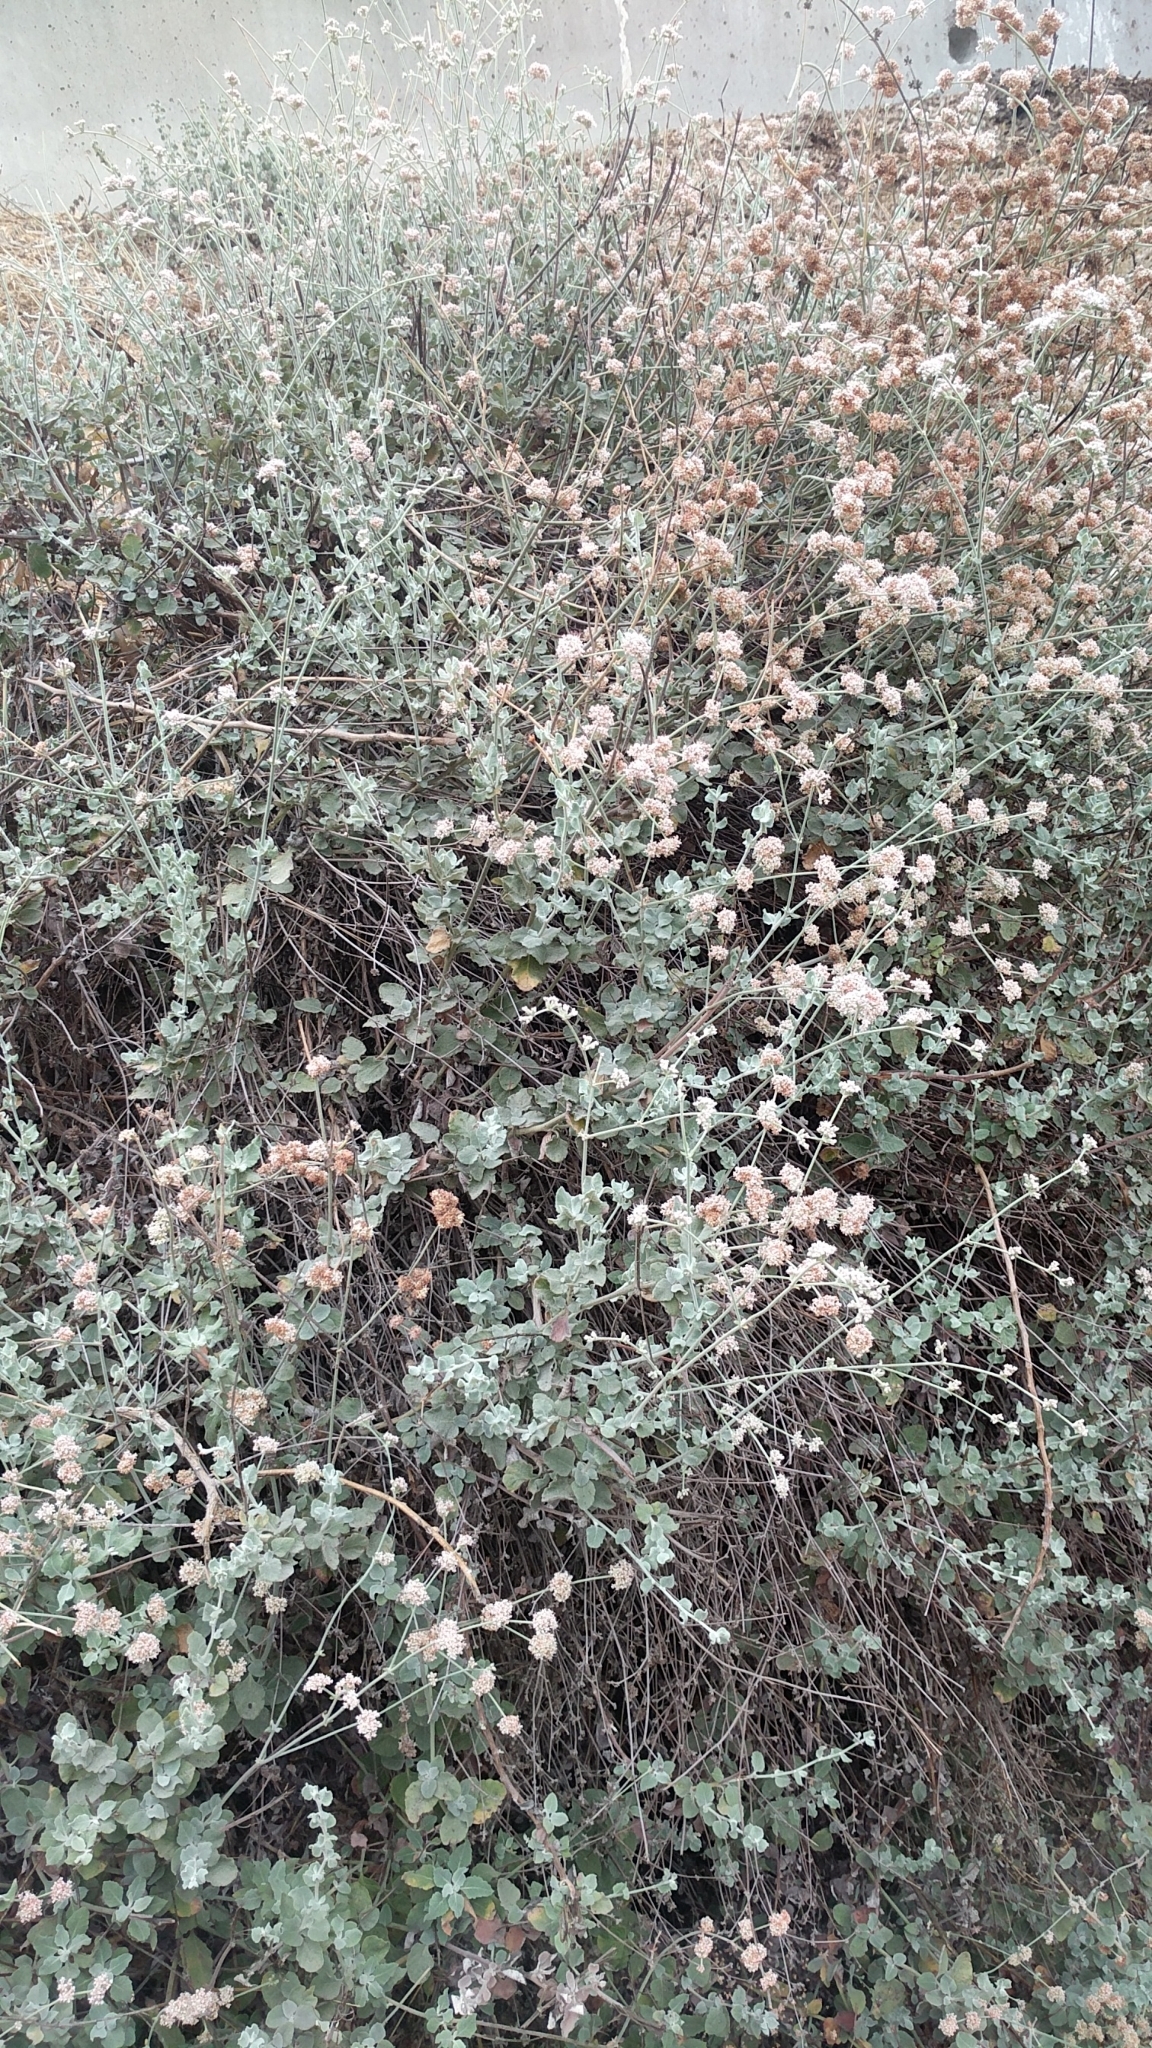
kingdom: Plantae
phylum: Tracheophyta
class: Magnoliopsida
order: Caryophyllales
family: Polygonaceae
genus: Eriogonum
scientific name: Eriogonum cinereum
